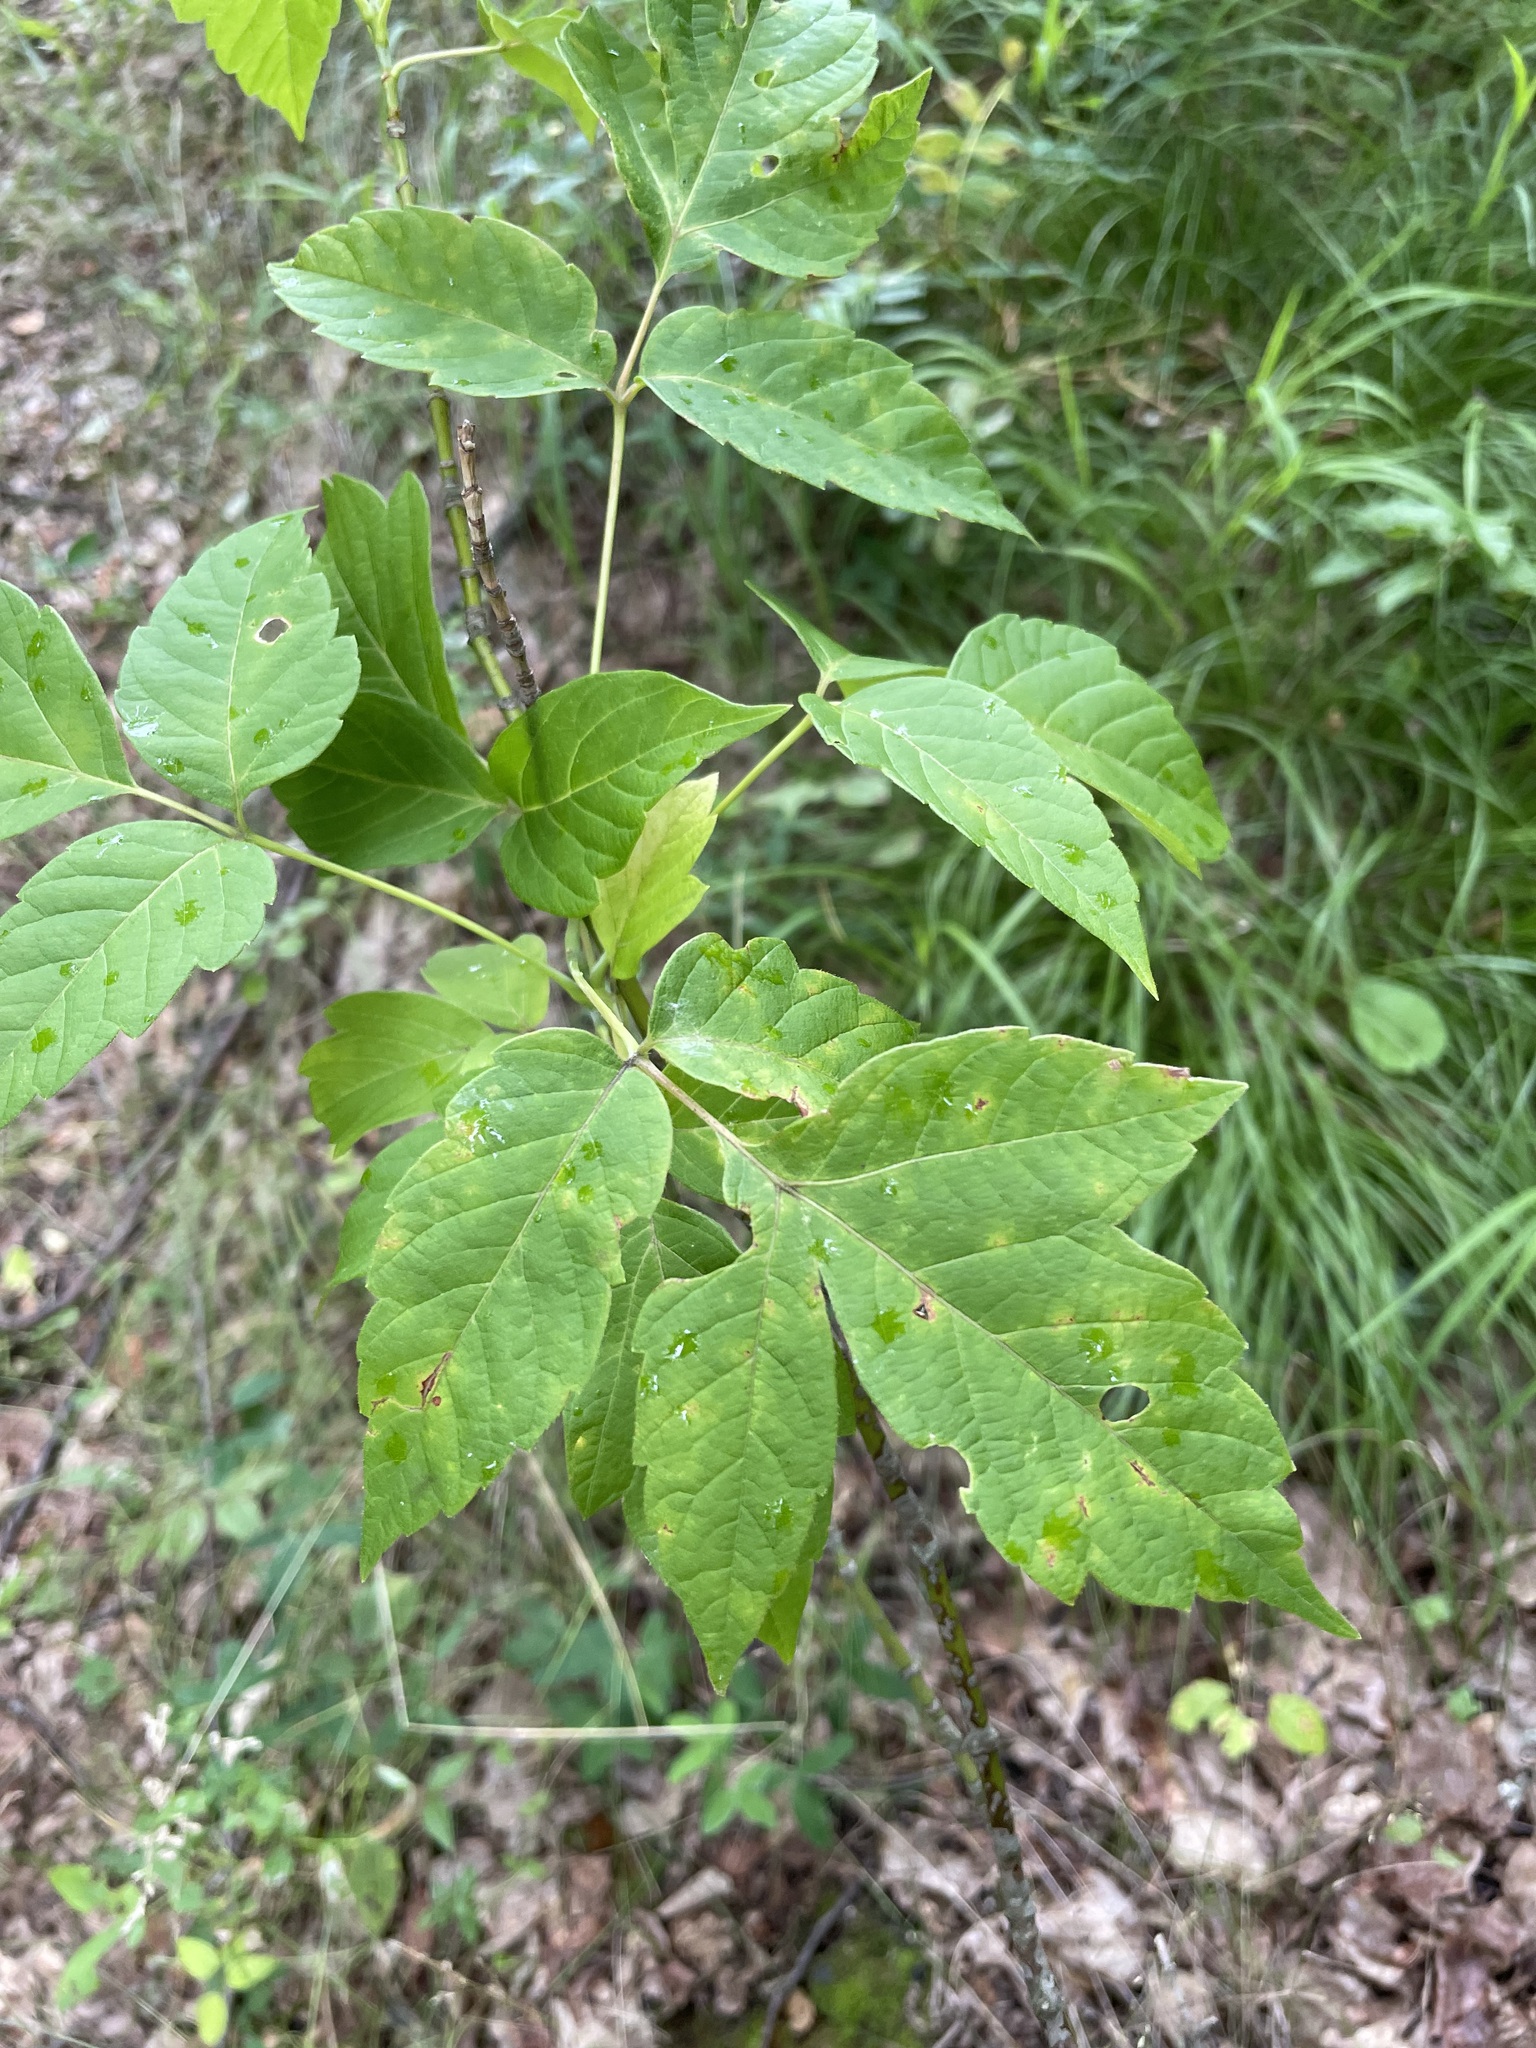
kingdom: Plantae
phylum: Tracheophyta
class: Magnoliopsida
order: Sapindales
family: Sapindaceae
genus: Acer
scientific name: Acer negundo
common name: Ashleaf maple
